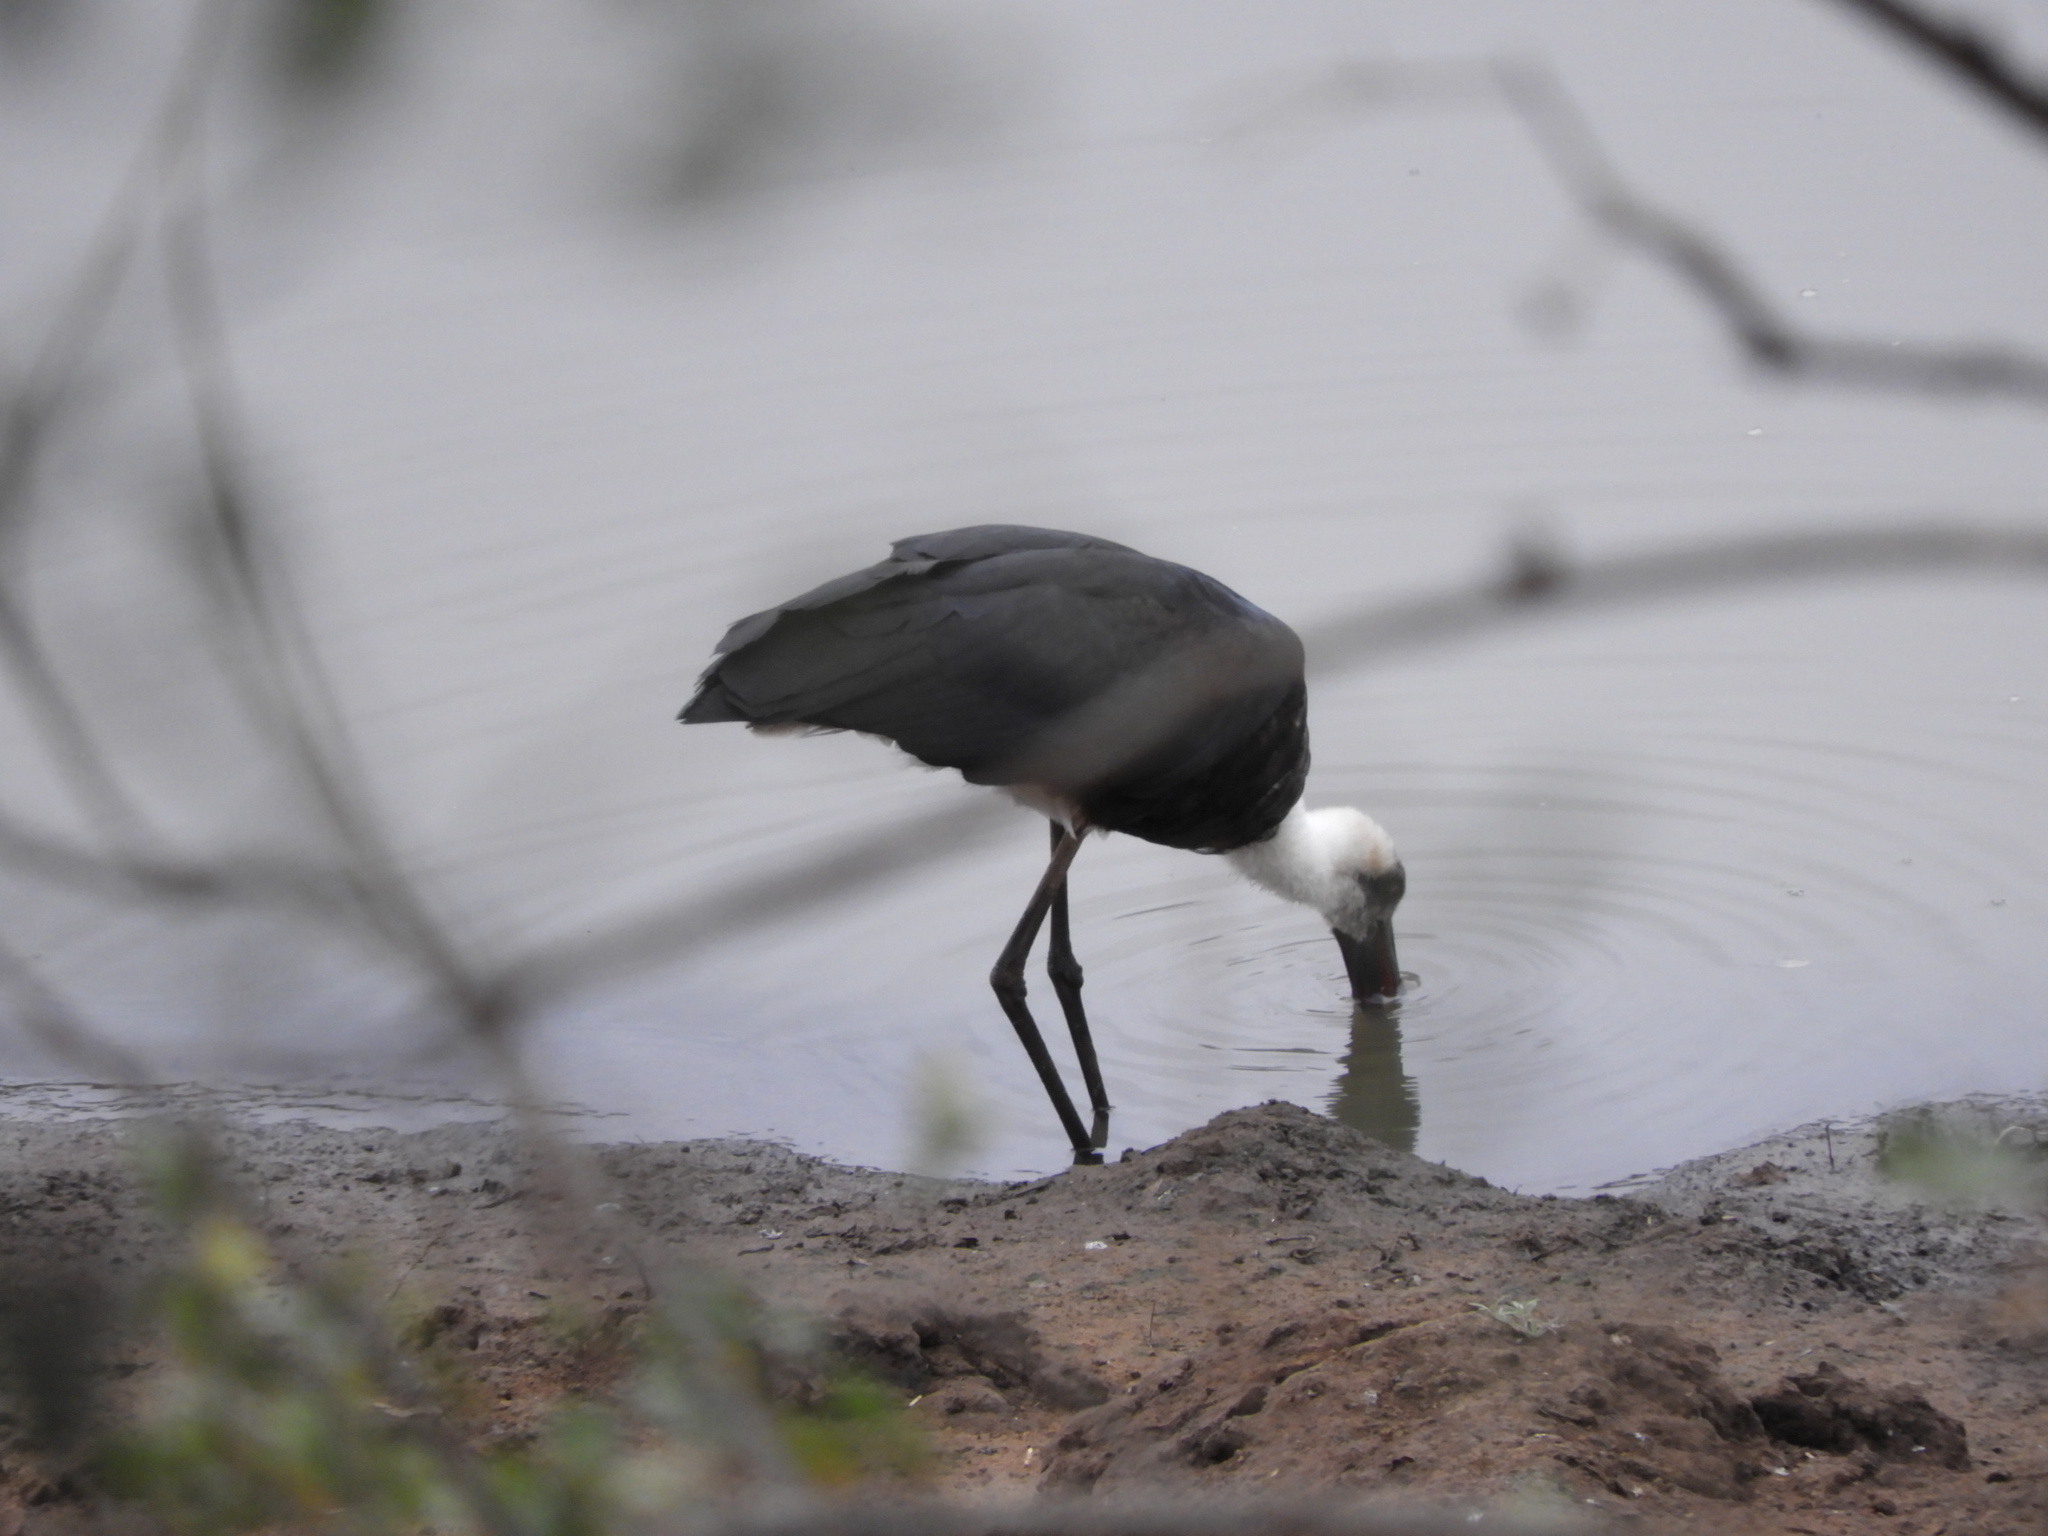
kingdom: Animalia
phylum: Chordata
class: Aves
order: Ciconiiformes
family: Ciconiidae
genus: Ciconia
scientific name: Ciconia microscelis
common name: African woollyneck
